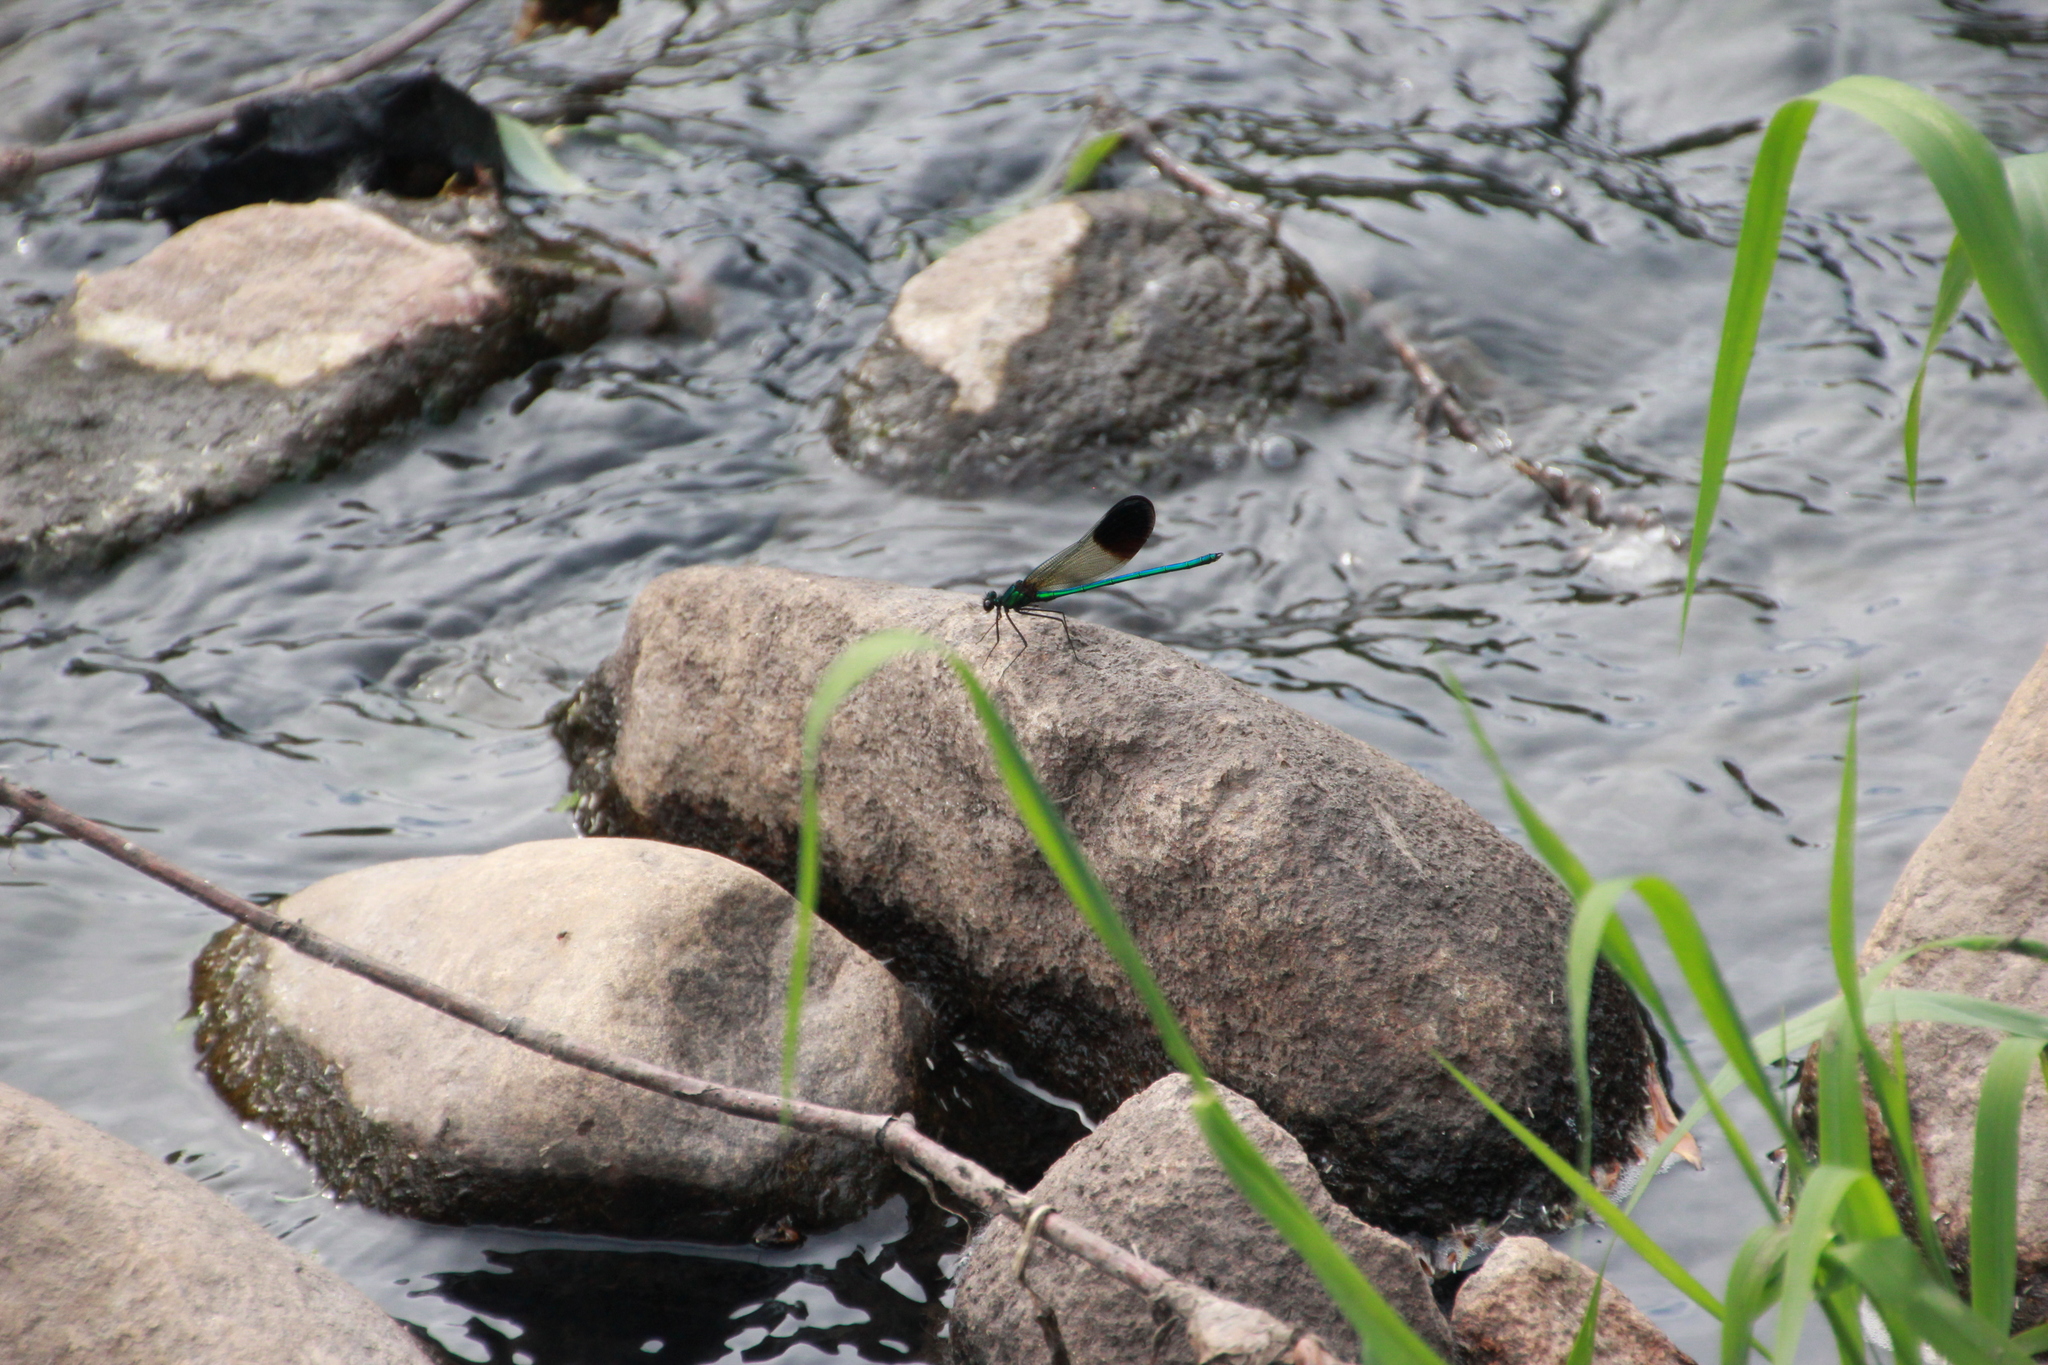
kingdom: Animalia
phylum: Arthropoda
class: Insecta
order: Odonata
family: Calopterygidae
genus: Calopteryx
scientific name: Calopteryx aequabilis
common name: River jewelwing
